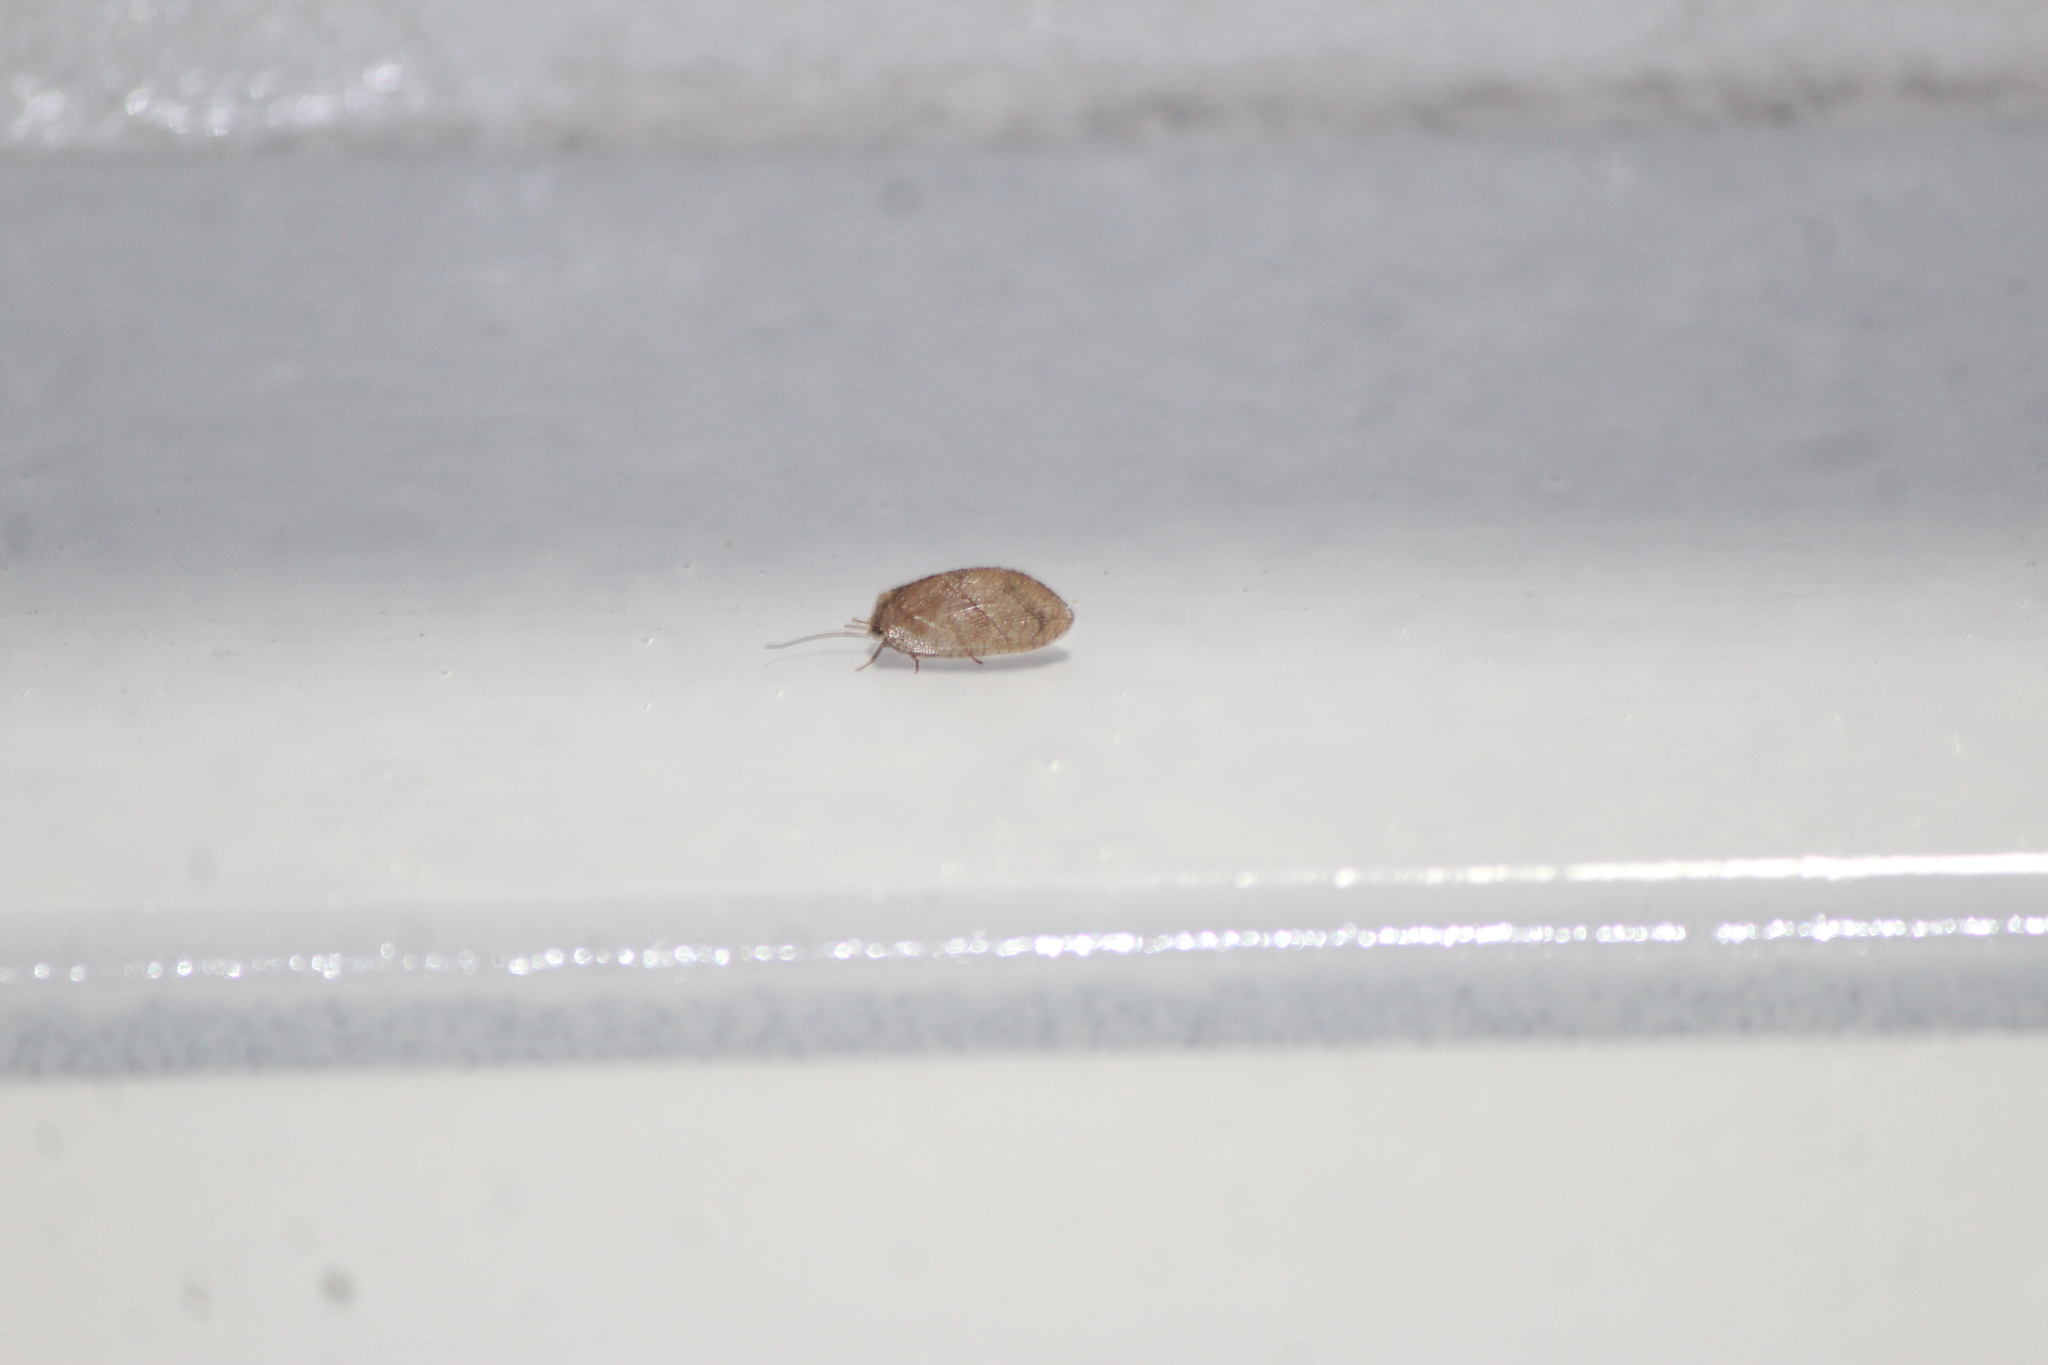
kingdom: Animalia
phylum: Arthropoda
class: Insecta
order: Neuroptera
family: Hemerobiidae
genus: Megalomus
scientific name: Megalomus moestus
